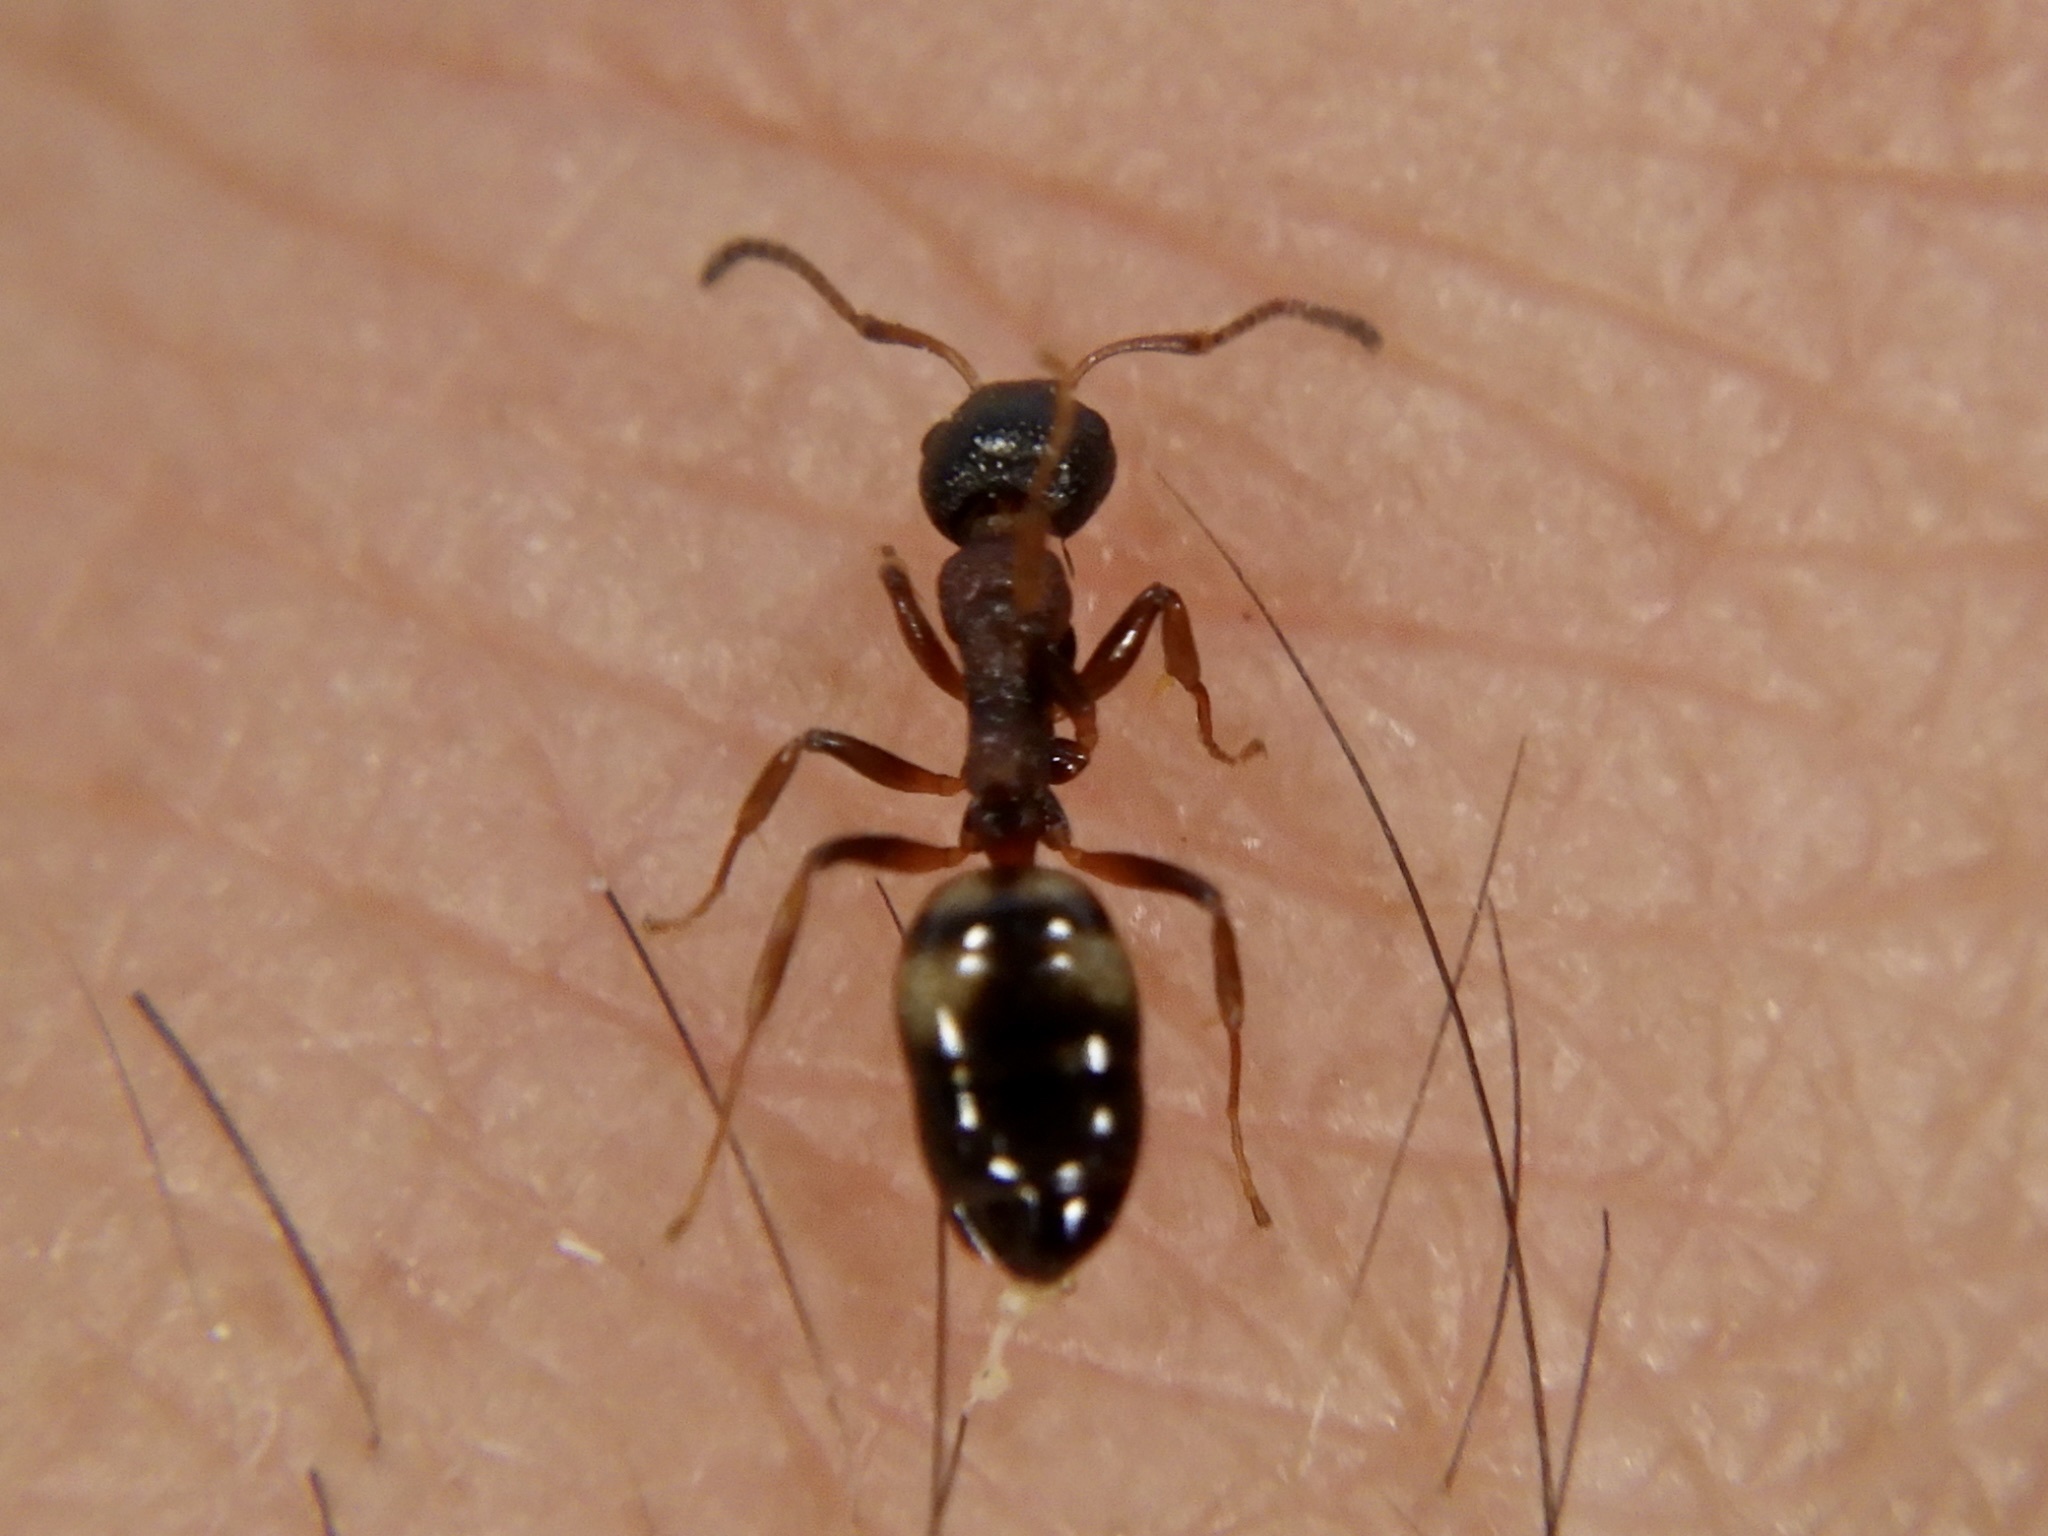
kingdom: Animalia
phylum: Arthropoda
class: Insecta
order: Hymenoptera
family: Formicidae
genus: Dolichoderus
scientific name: Dolichoderus sibiricus
